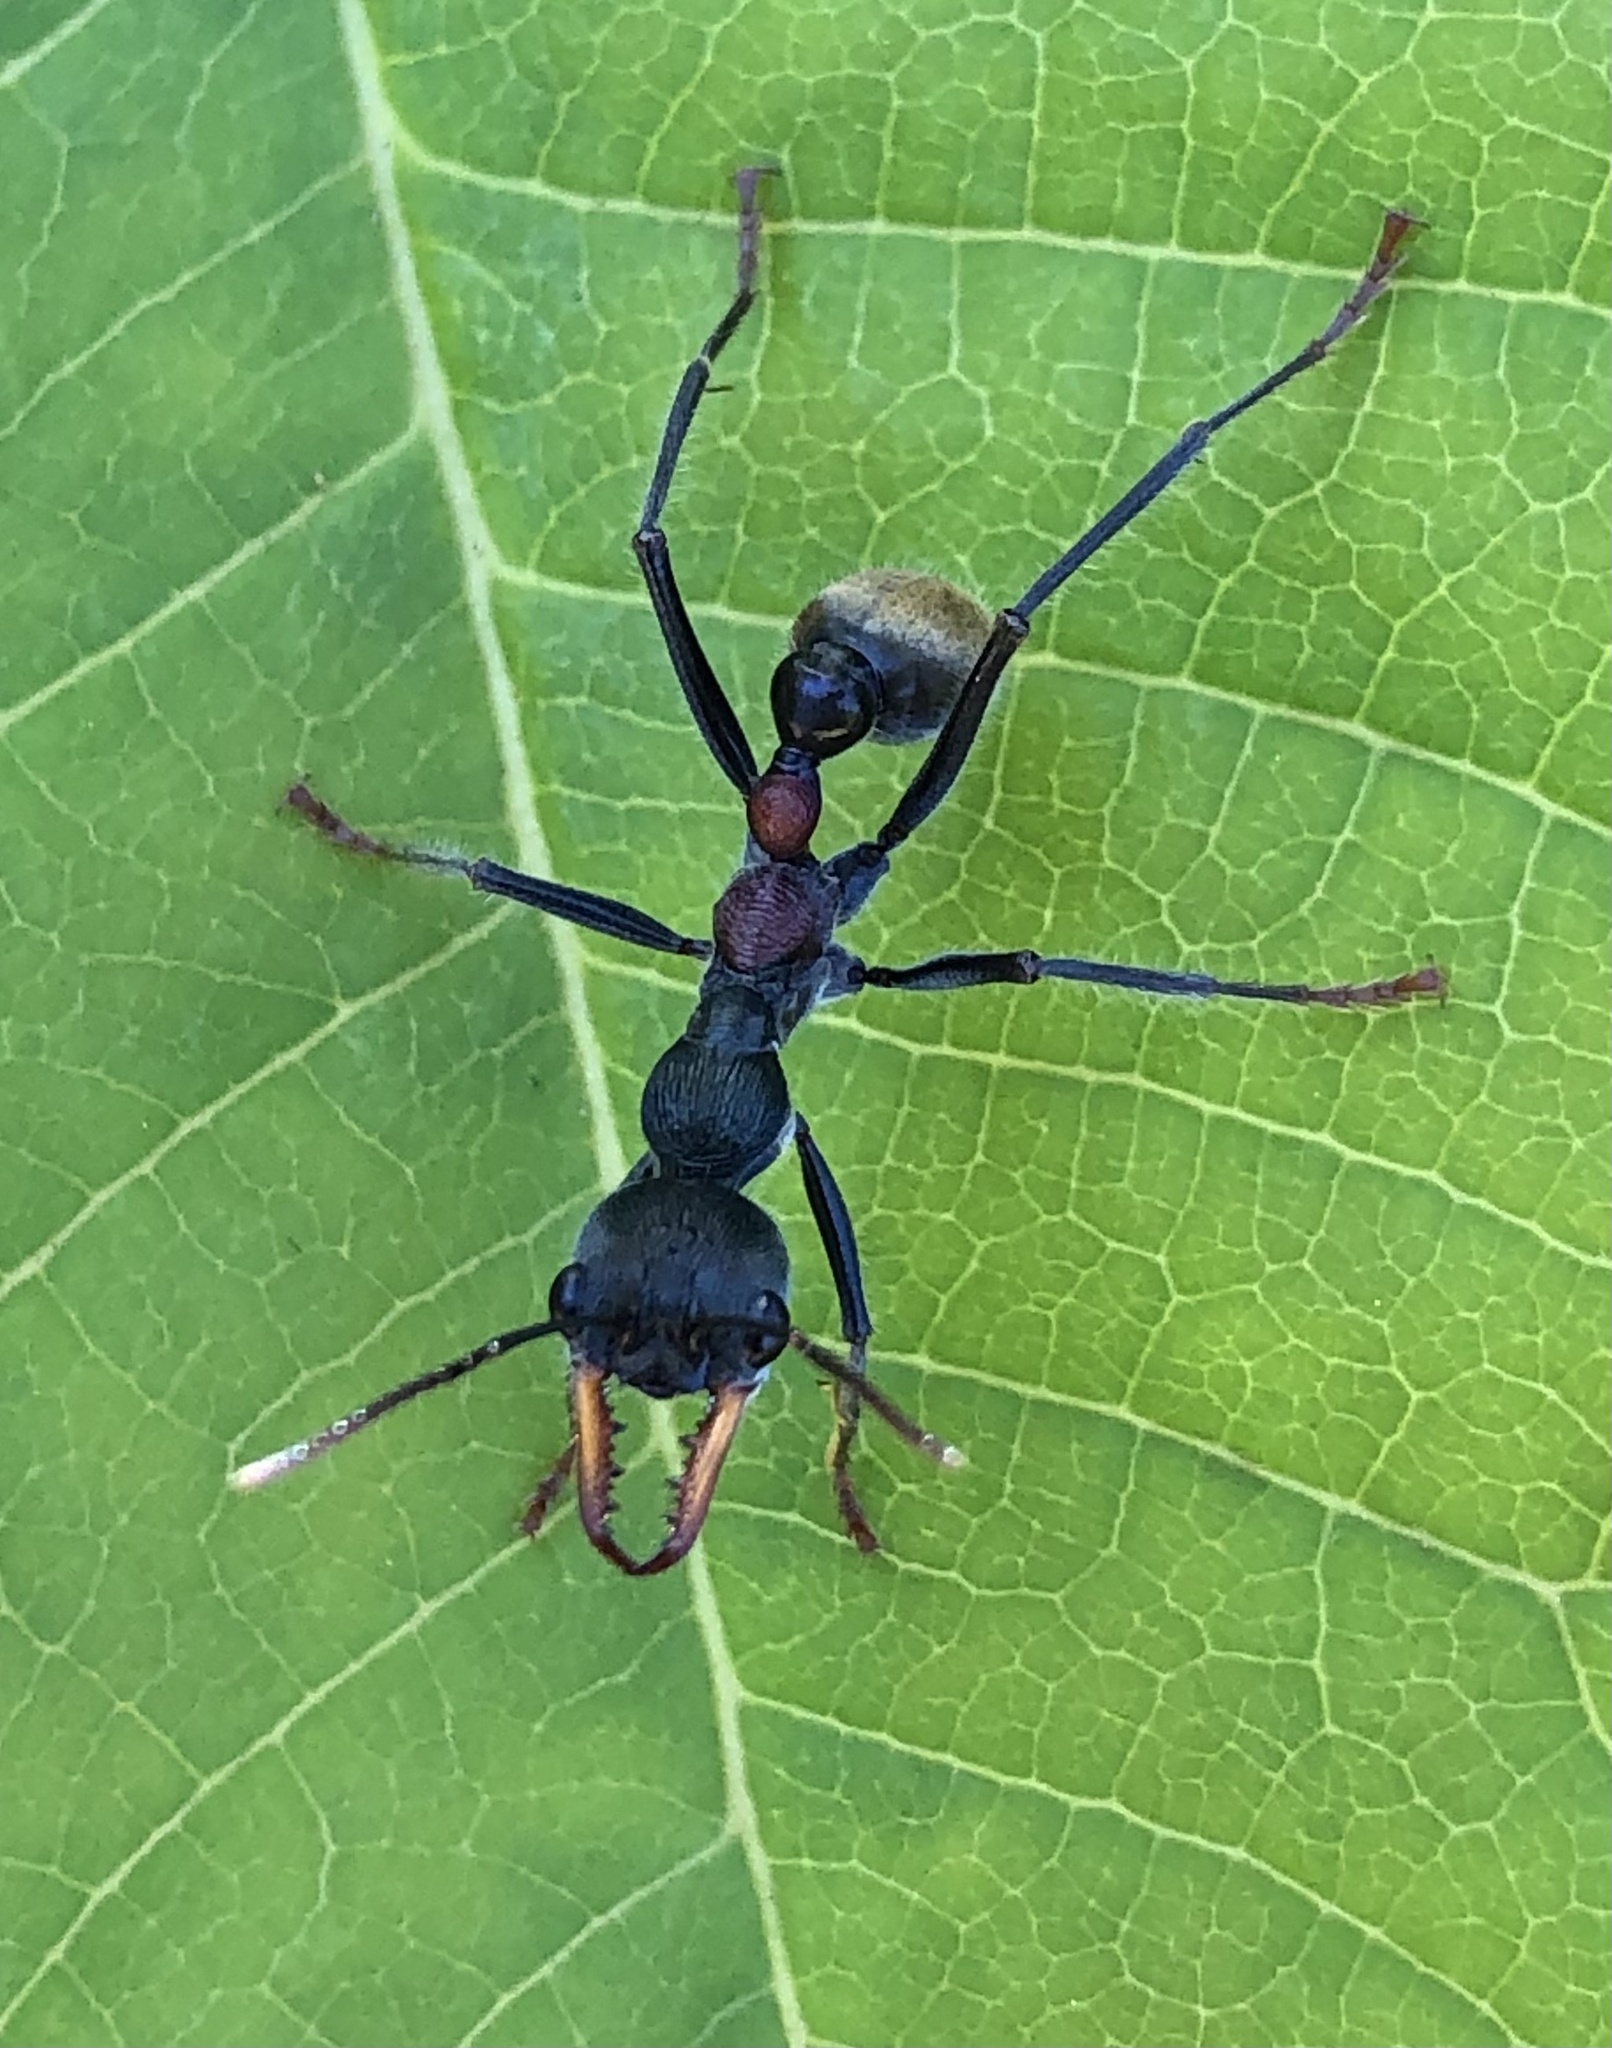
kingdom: Animalia
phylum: Arthropoda
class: Insecta
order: Hymenoptera
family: Formicidae
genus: Myrmecia
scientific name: Myrmecia athertonensis
